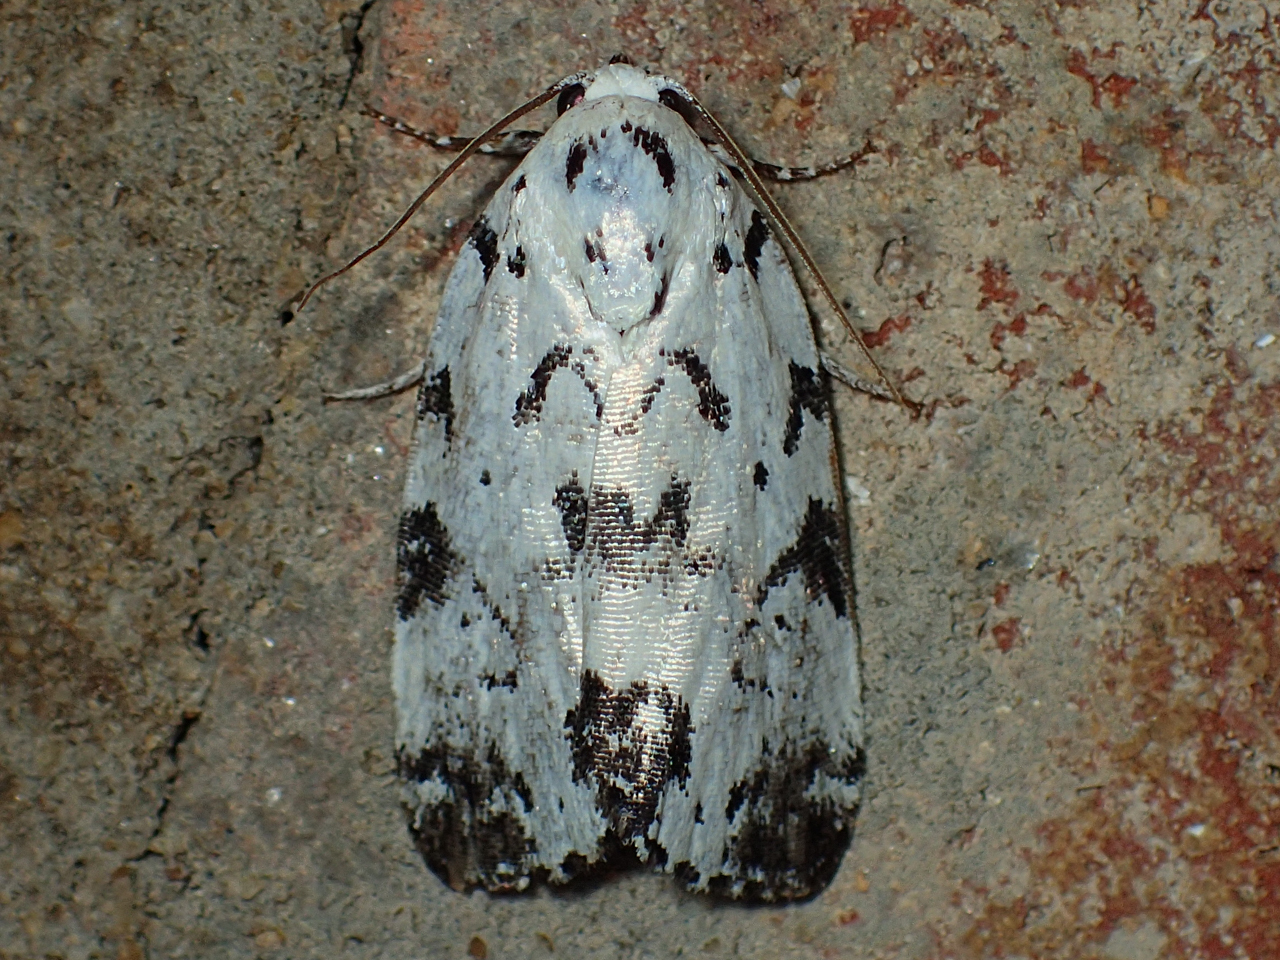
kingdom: Animalia
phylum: Arthropoda
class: Insecta
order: Lepidoptera
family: Noctuidae
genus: Polygrammate
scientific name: Polygrammate hebraeicum
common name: Hebrew moth
